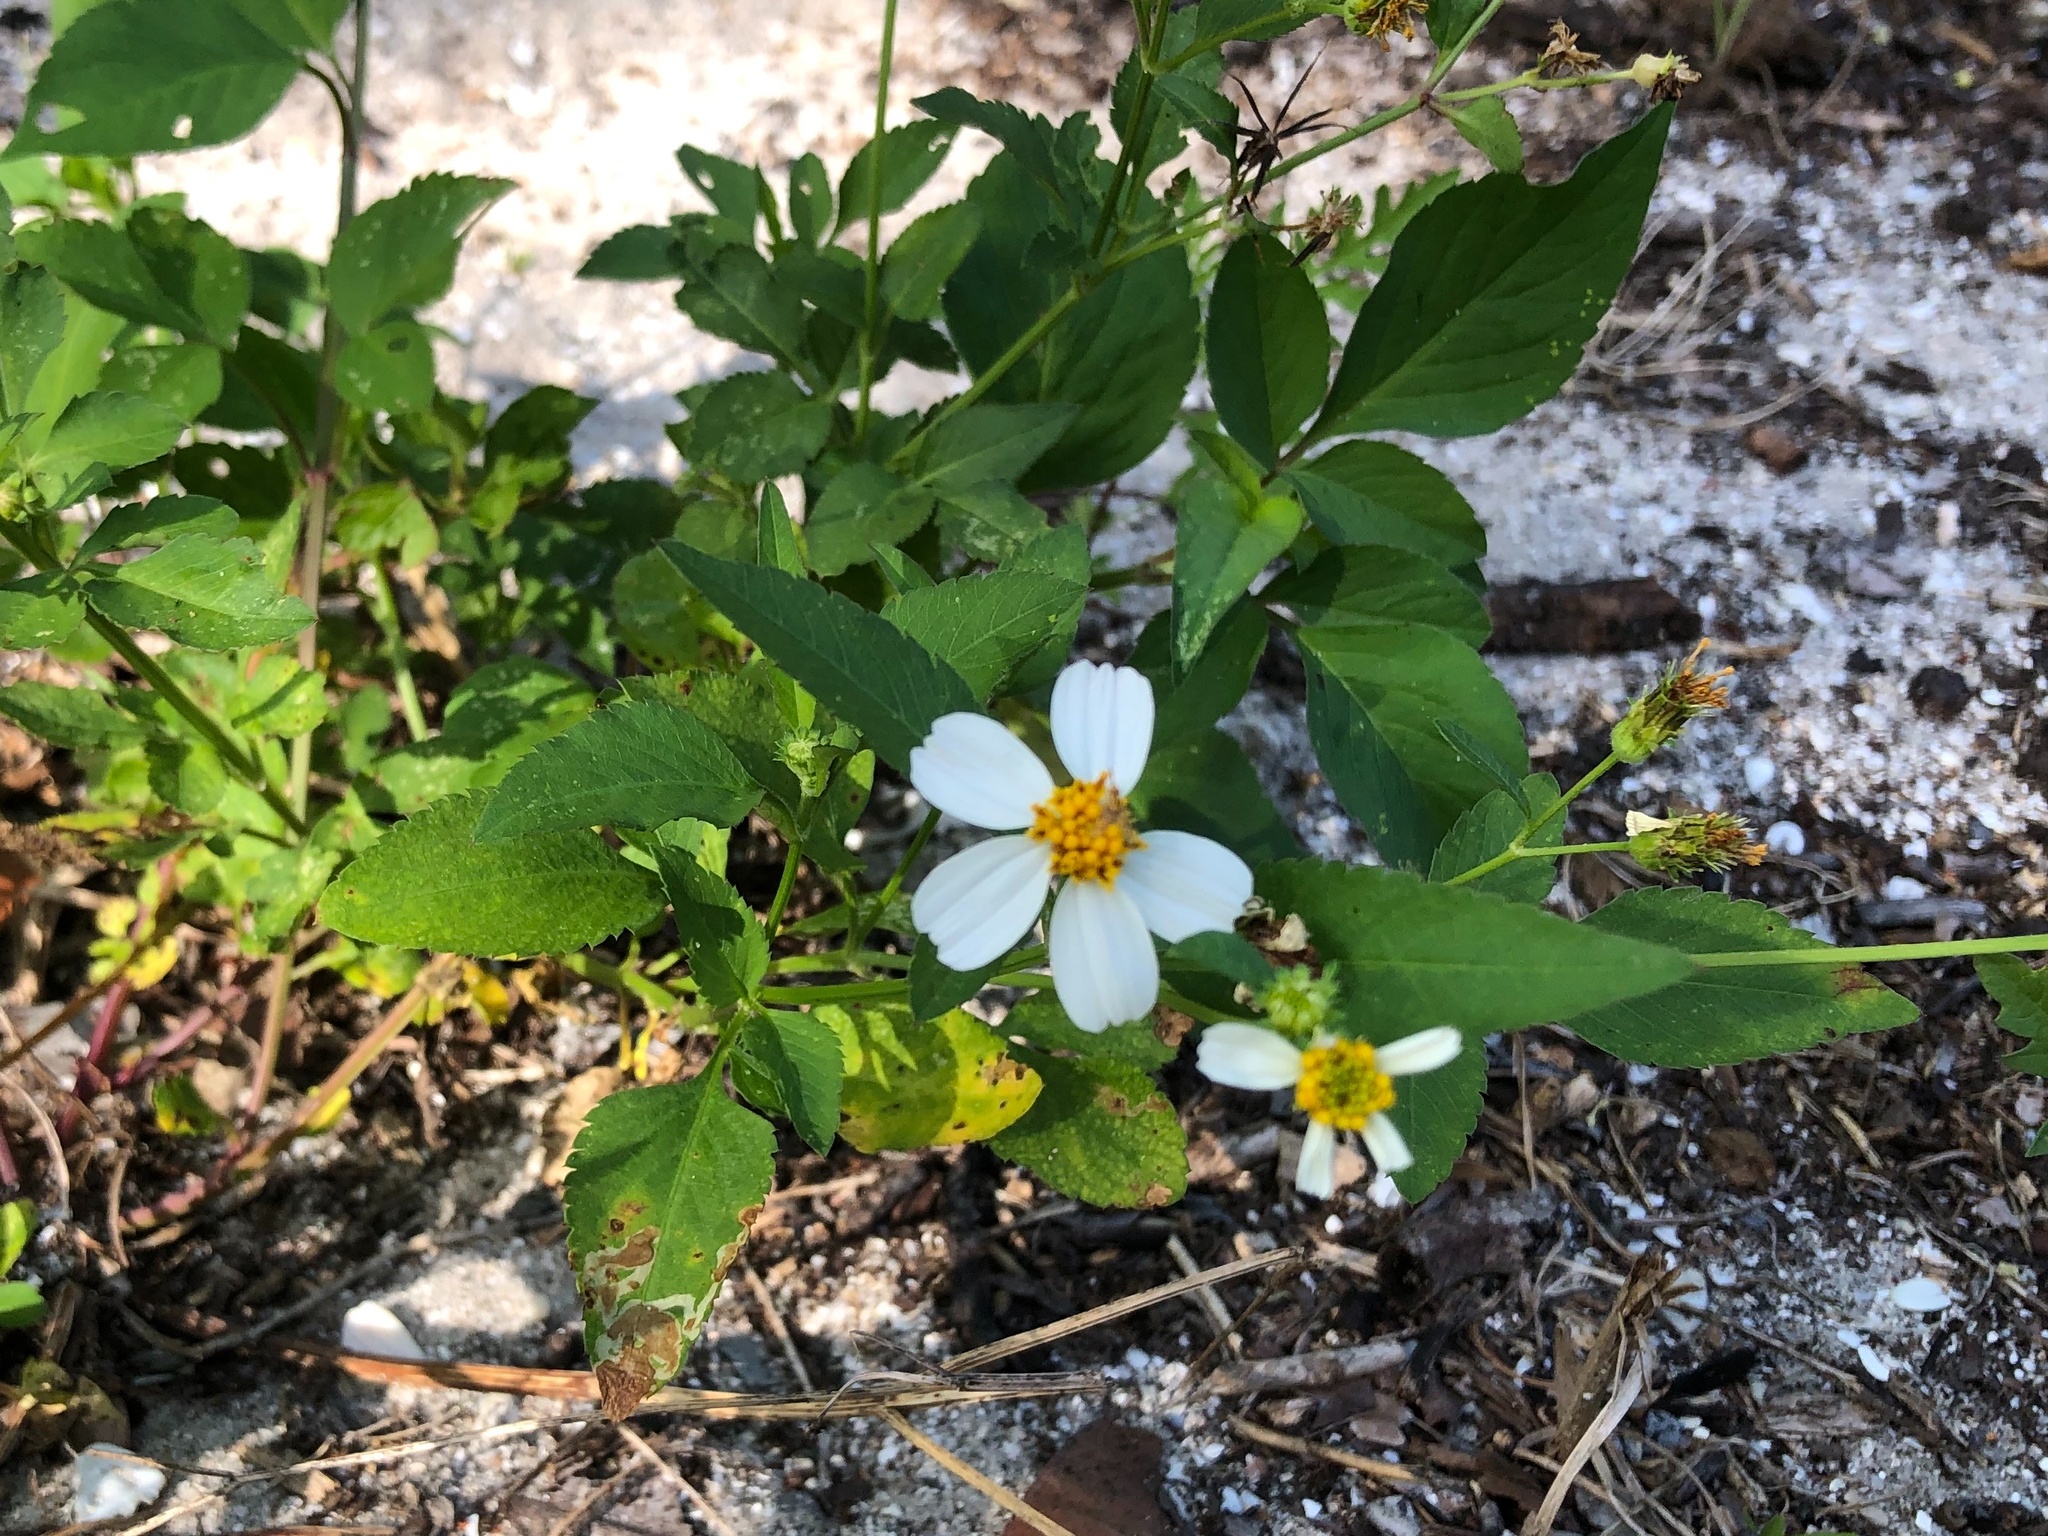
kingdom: Plantae
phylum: Tracheophyta
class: Magnoliopsida
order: Asterales
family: Asteraceae
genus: Bidens
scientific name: Bidens alba
